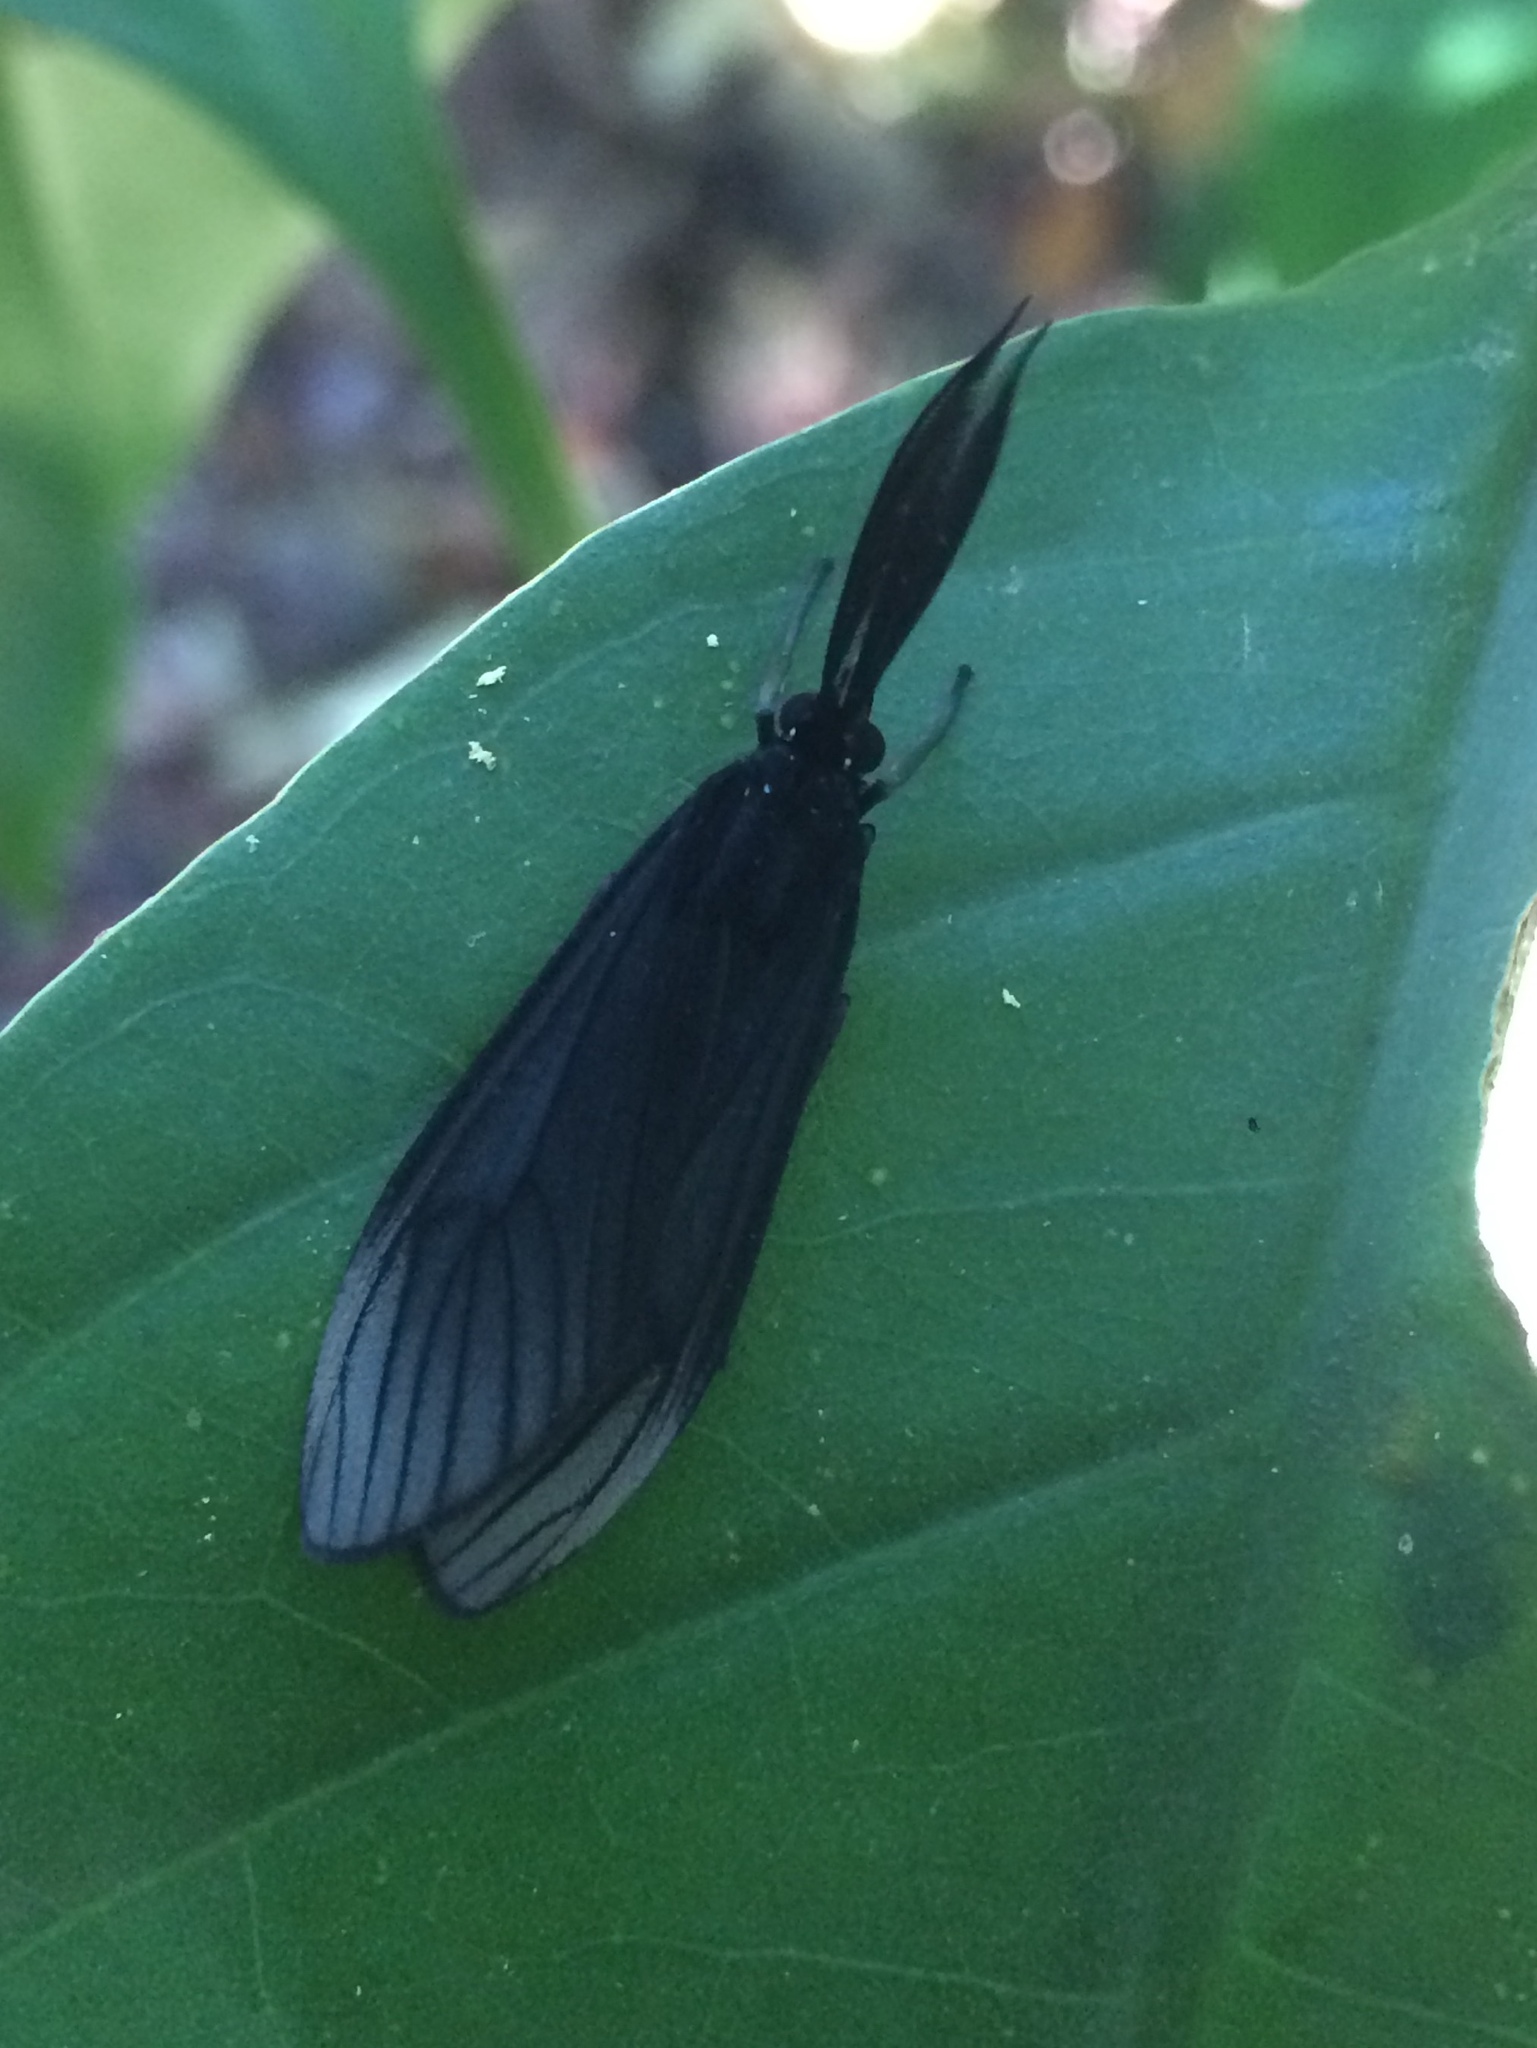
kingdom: Animalia
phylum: Arthropoda
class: Insecta
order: Lepidoptera
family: Erebidae
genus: Sciopsyche
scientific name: Sciopsyche tropica
